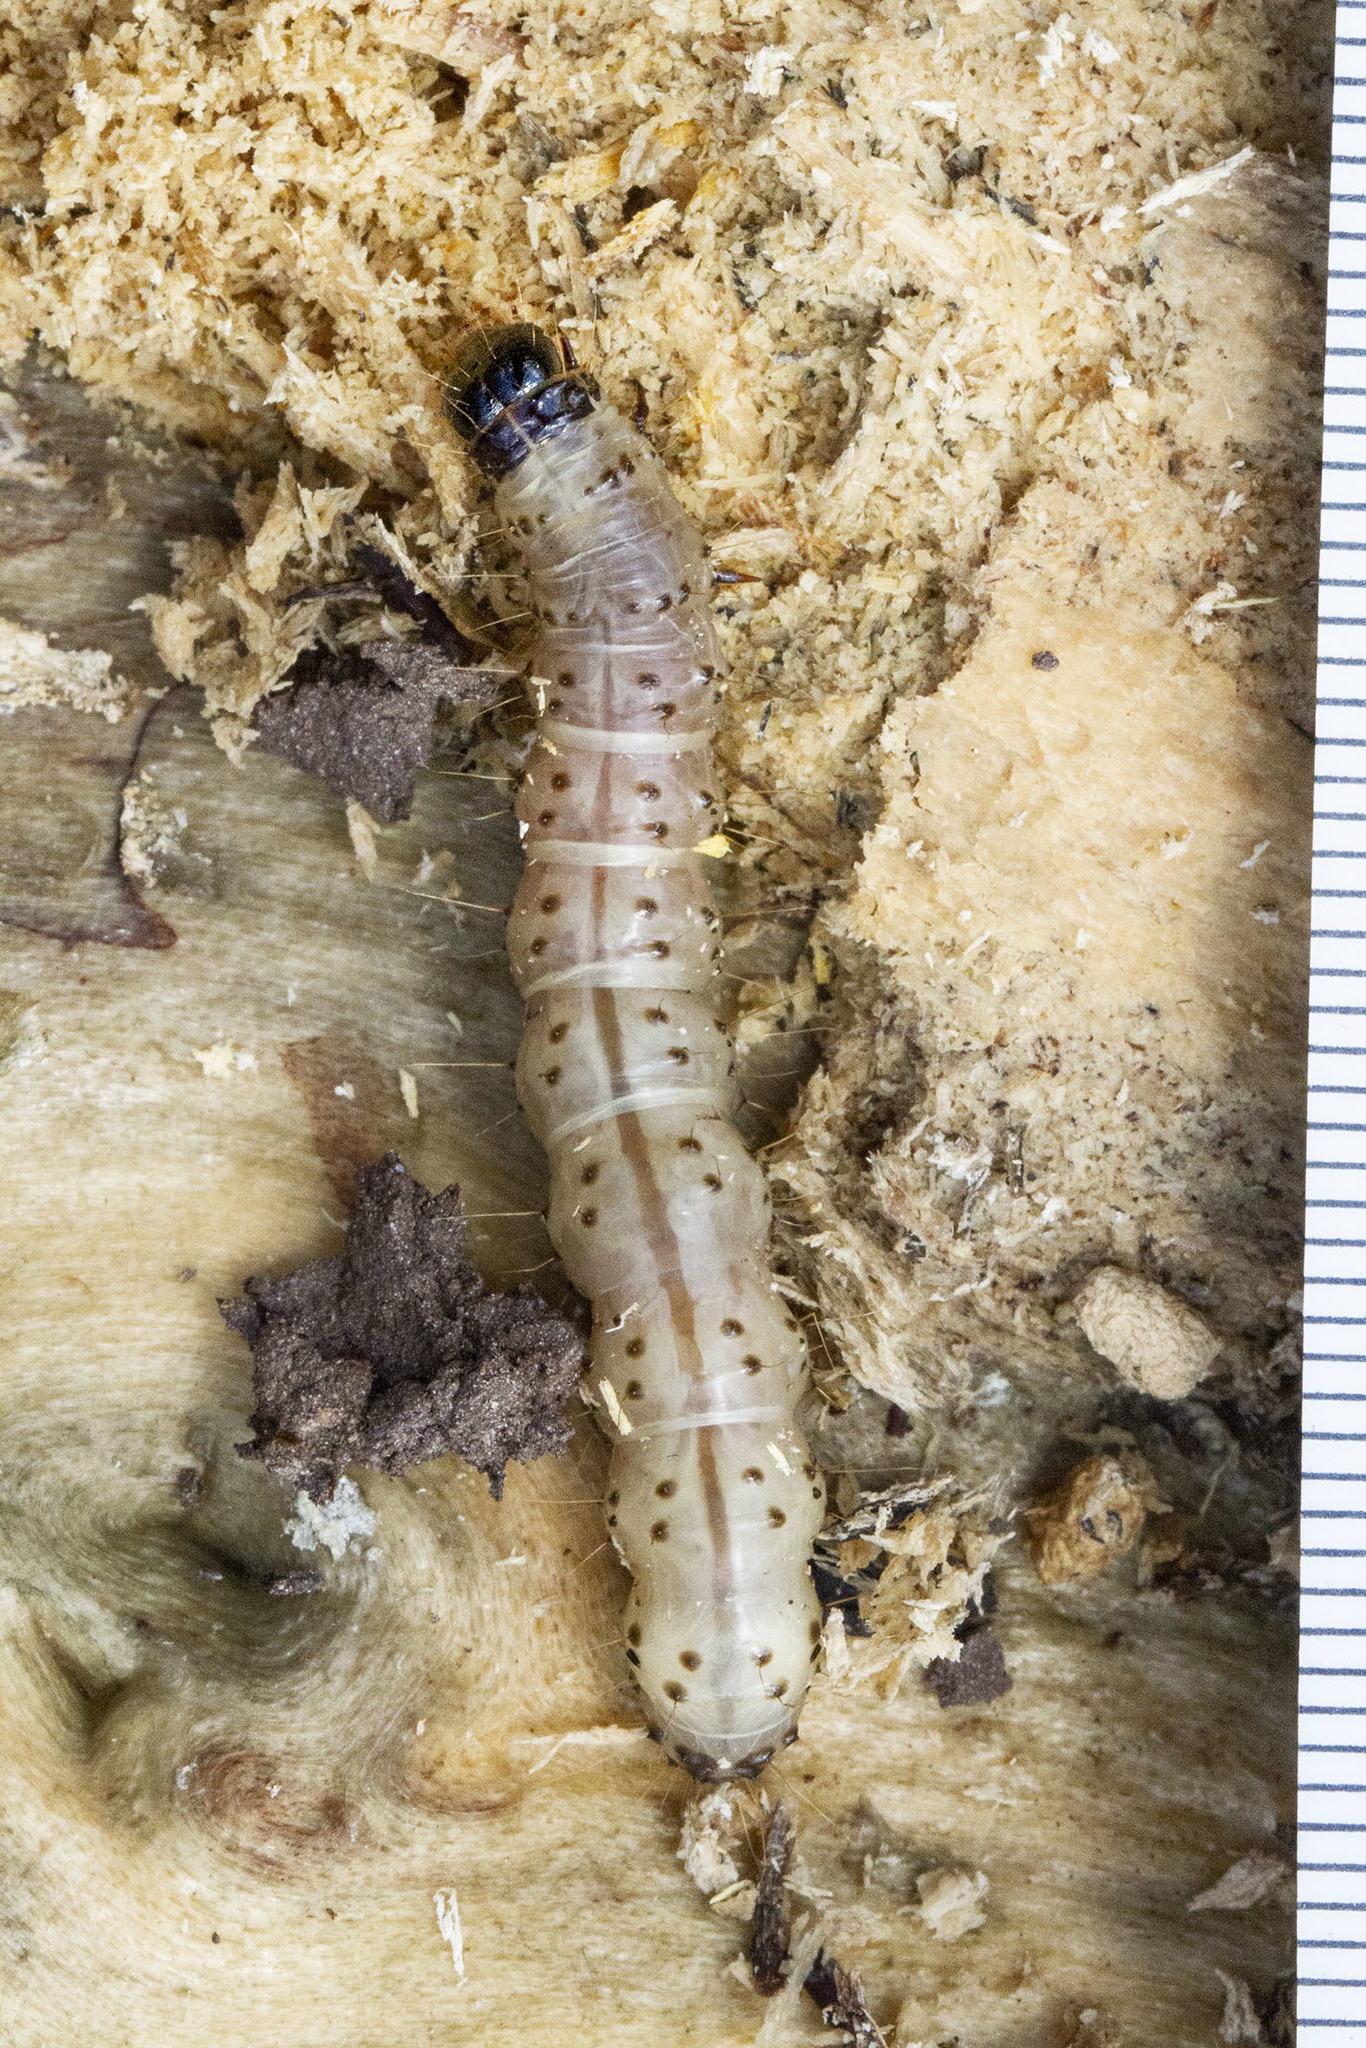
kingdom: Animalia
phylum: Arthropoda
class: Insecta
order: Lepidoptera
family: Erebidae
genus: Scolecocampa
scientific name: Scolecocampa liburna
